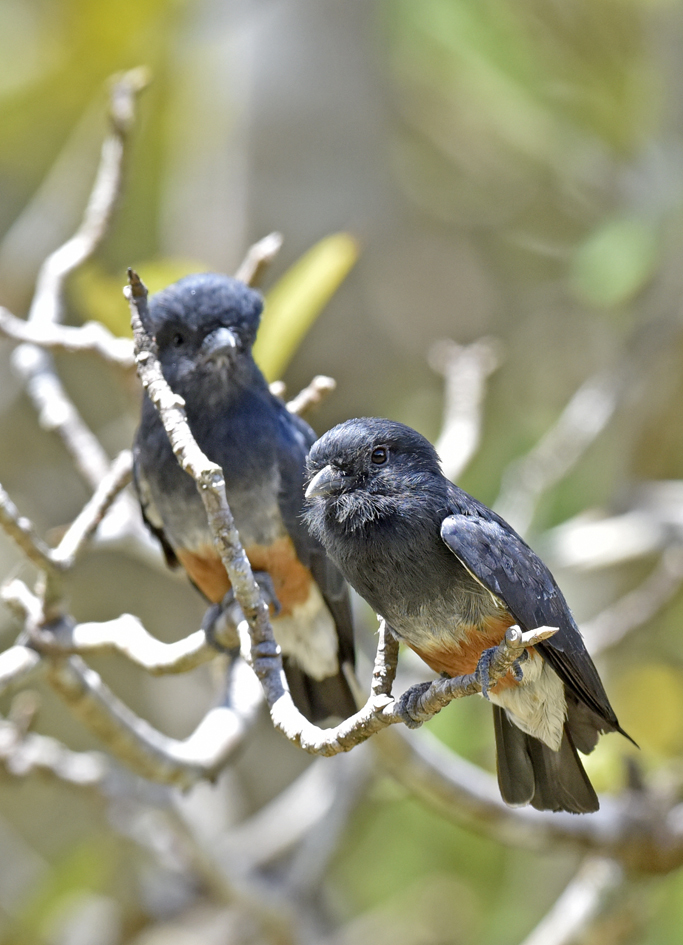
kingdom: Animalia
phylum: Chordata
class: Aves
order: Piciformes
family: Bucconidae
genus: Chelidoptera
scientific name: Chelidoptera tenebrosa
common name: Swallow-winged puffbird
